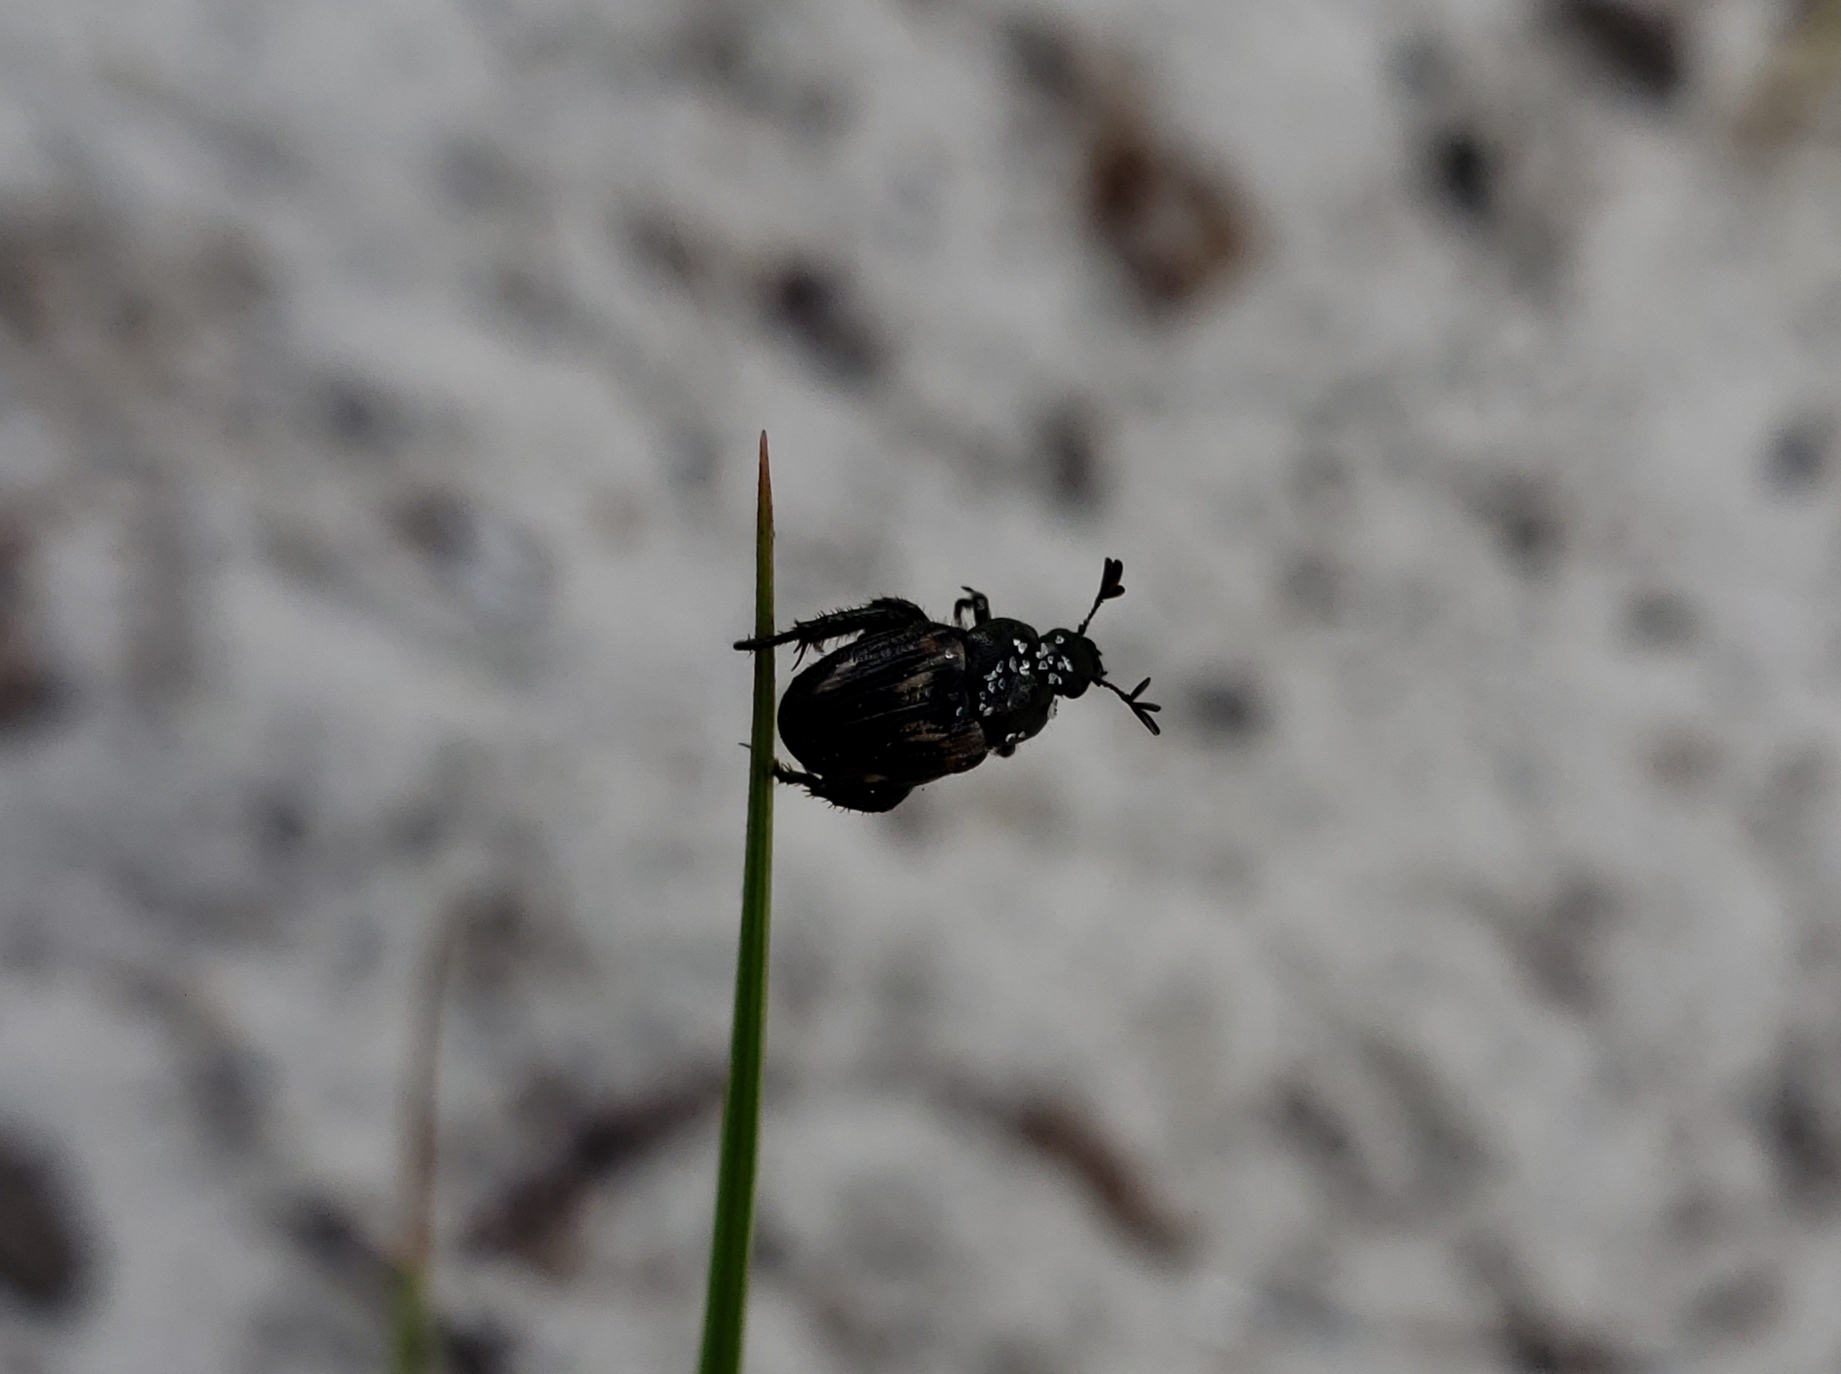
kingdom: Animalia
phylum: Arthropoda
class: Insecta
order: Coleoptera
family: Scarabaeidae
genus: Strigoderma
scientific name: Strigoderma pygmaea
